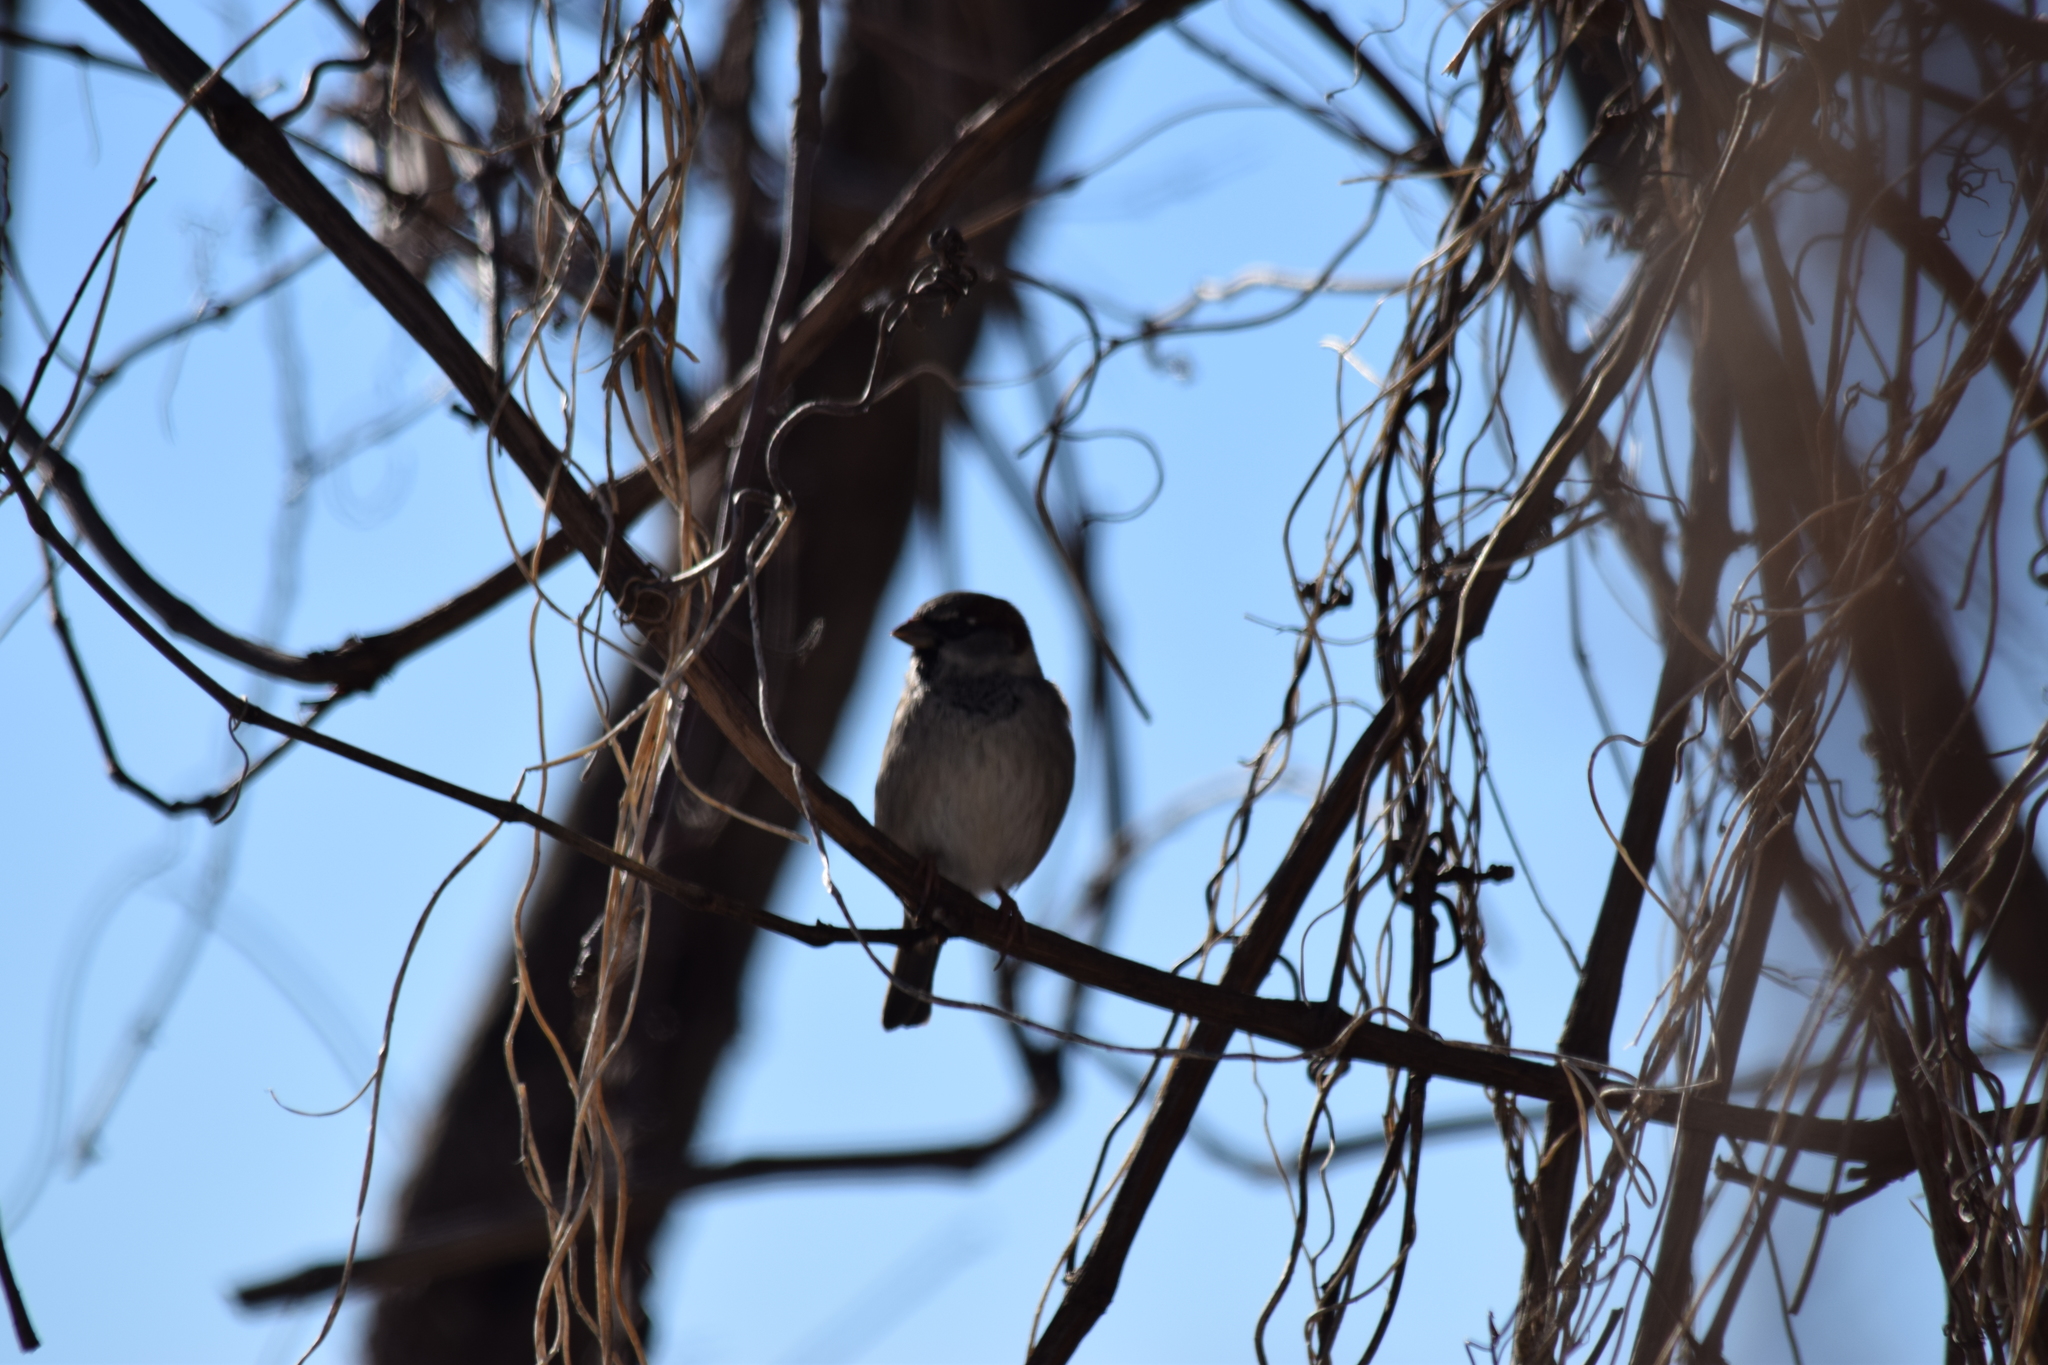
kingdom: Animalia
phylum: Chordata
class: Aves
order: Passeriformes
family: Passeridae
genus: Passer
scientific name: Passer domesticus
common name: House sparrow
